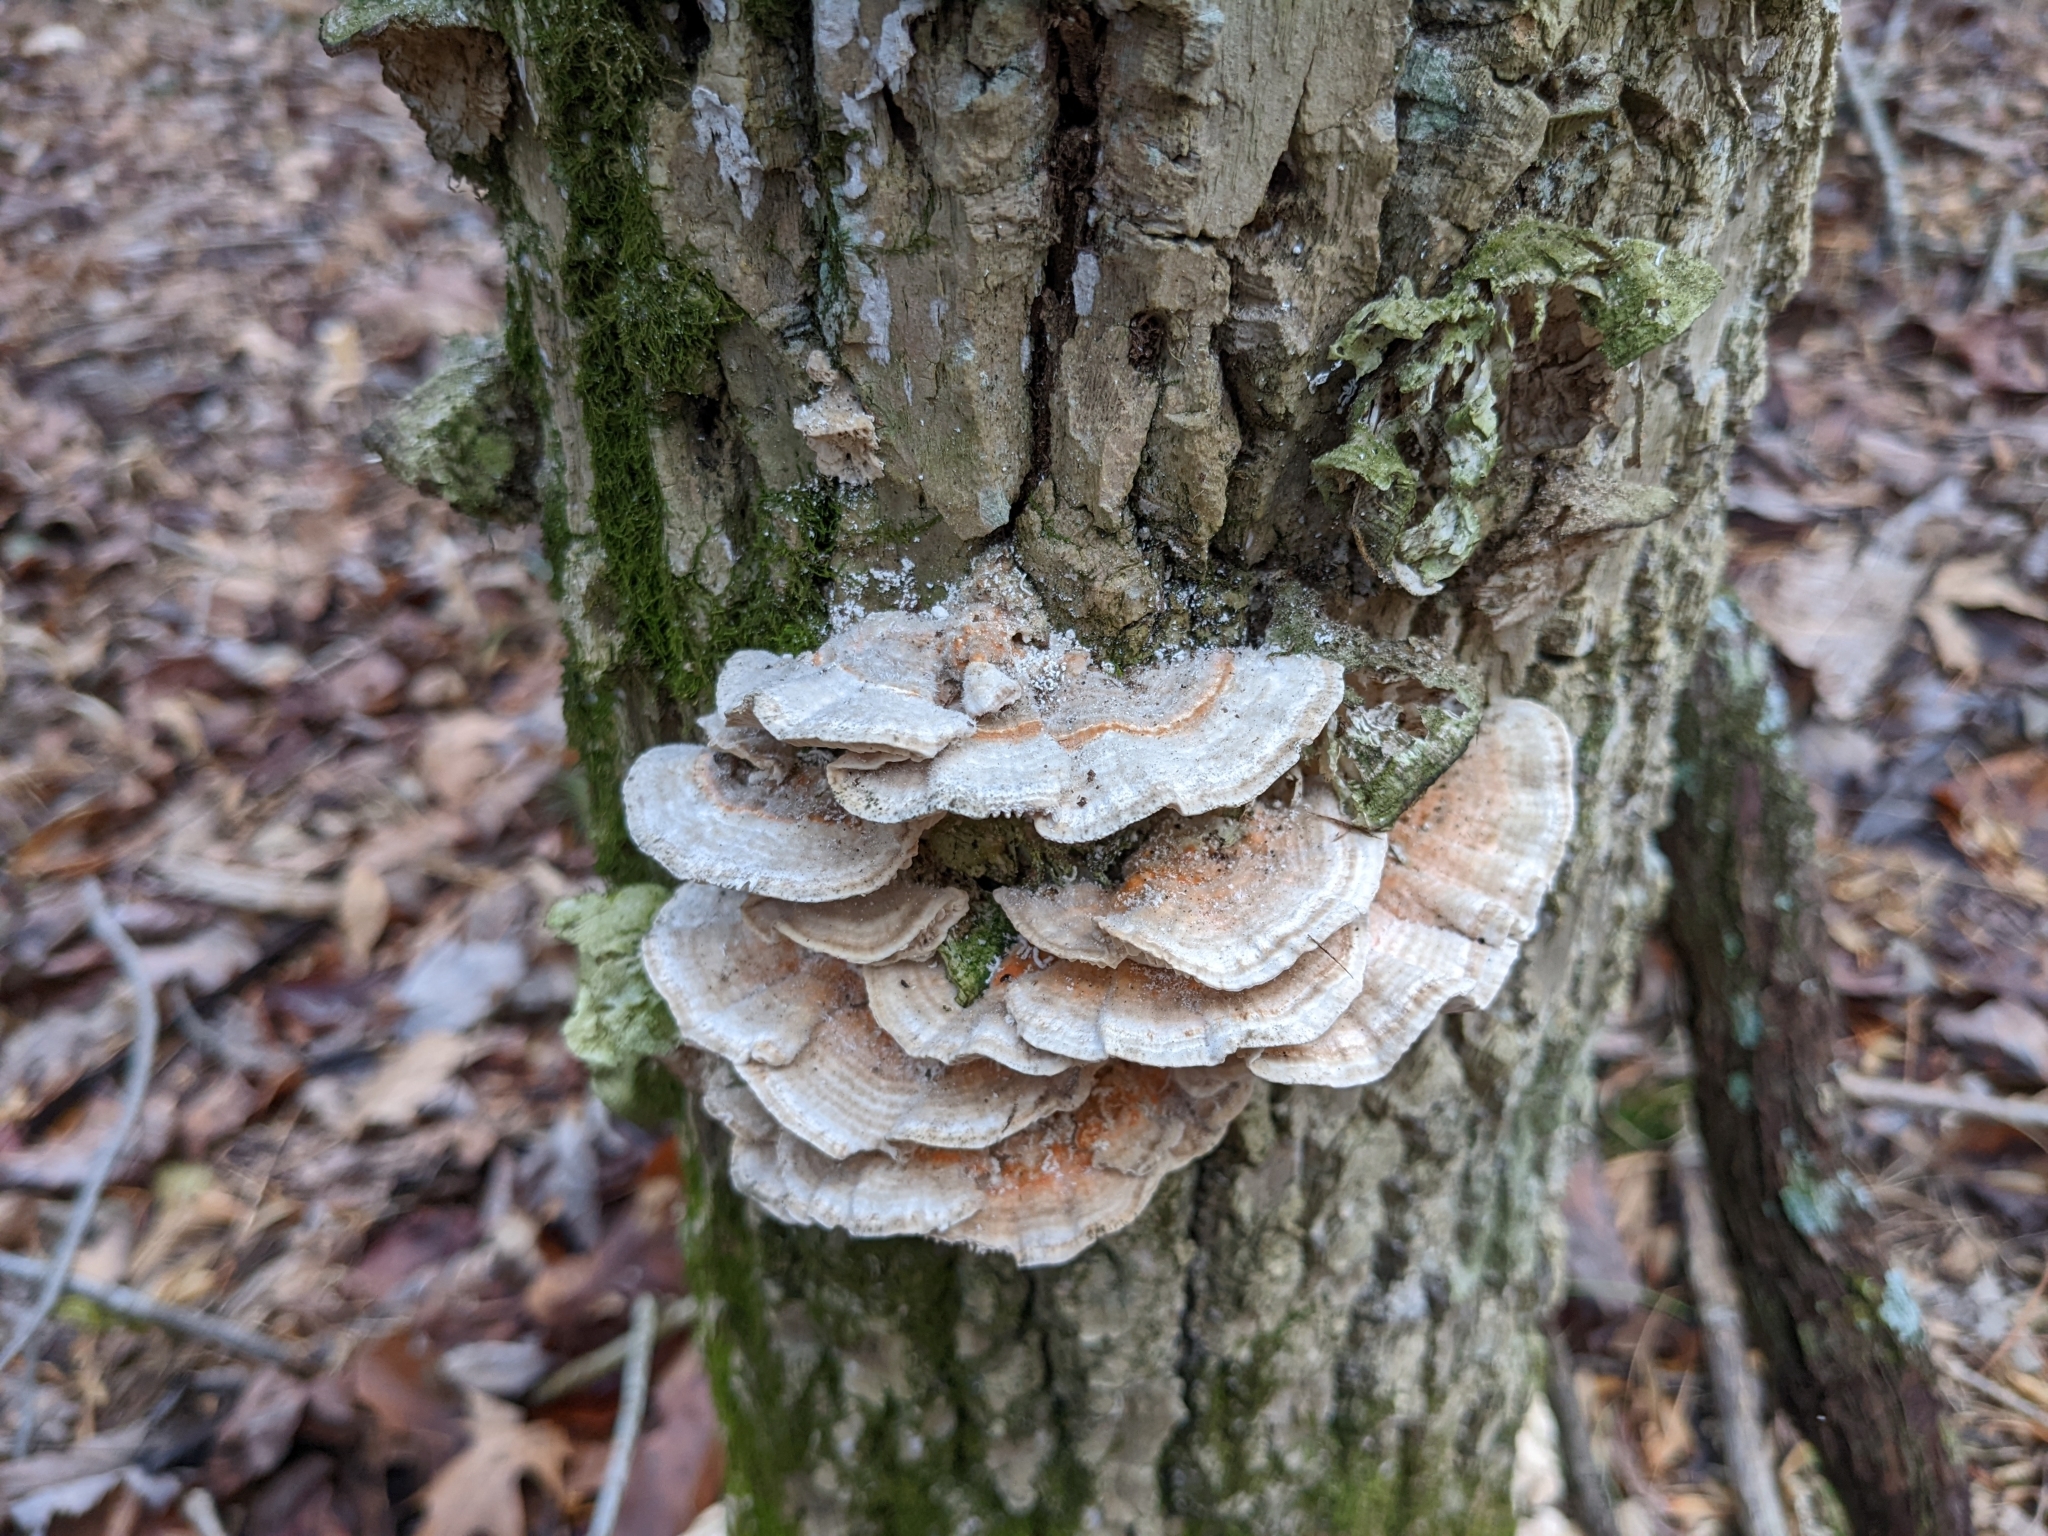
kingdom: Fungi
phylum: Basidiomycota
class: Agaricomycetes
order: Polyporales
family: Polyporaceae
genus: Lenzites
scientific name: Lenzites betulinus
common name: Birch mazegill
